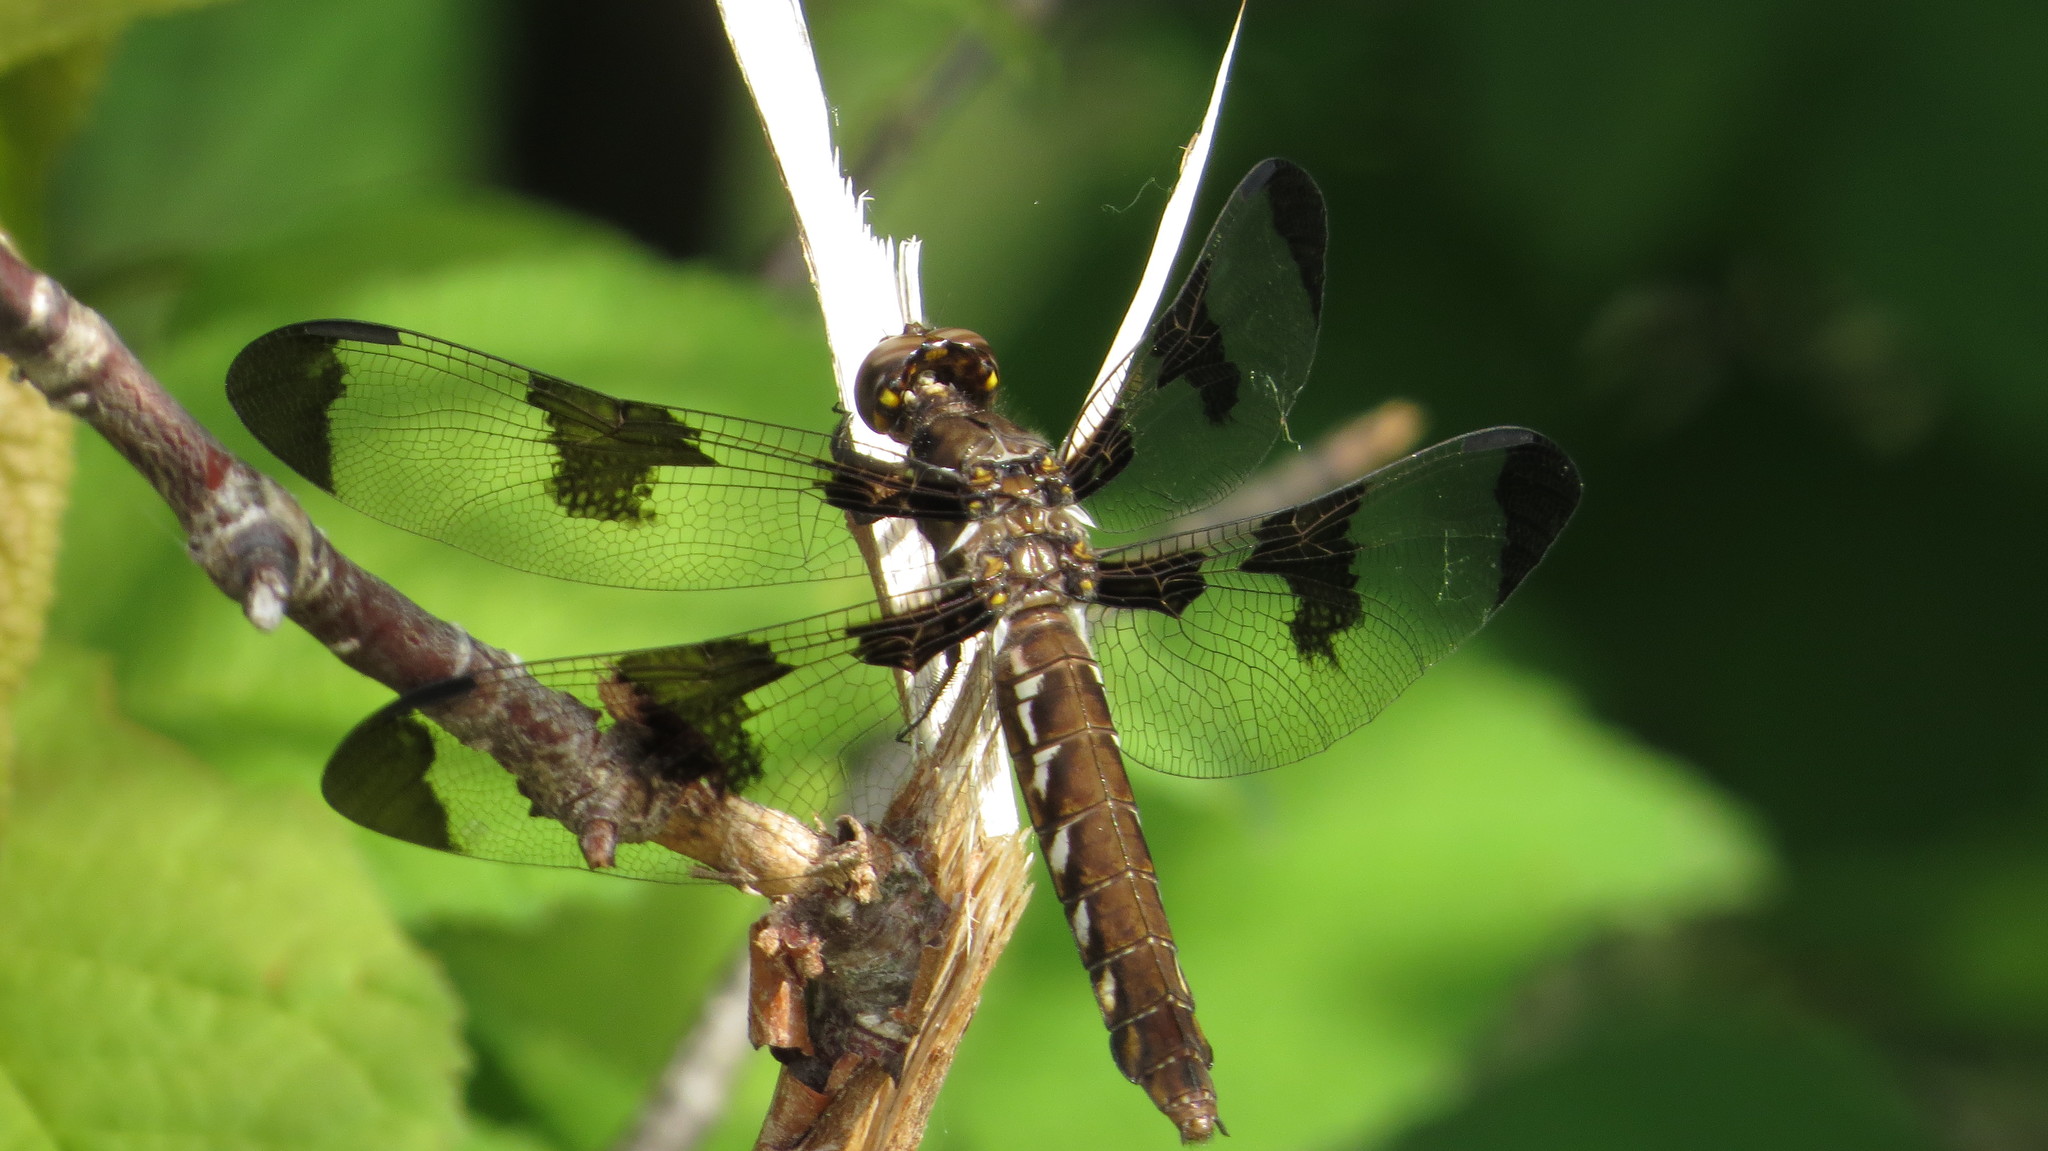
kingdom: Animalia
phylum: Arthropoda
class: Insecta
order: Odonata
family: Libellulidae
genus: Plathemis
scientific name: Plathemis lydia
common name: Common whitetail
